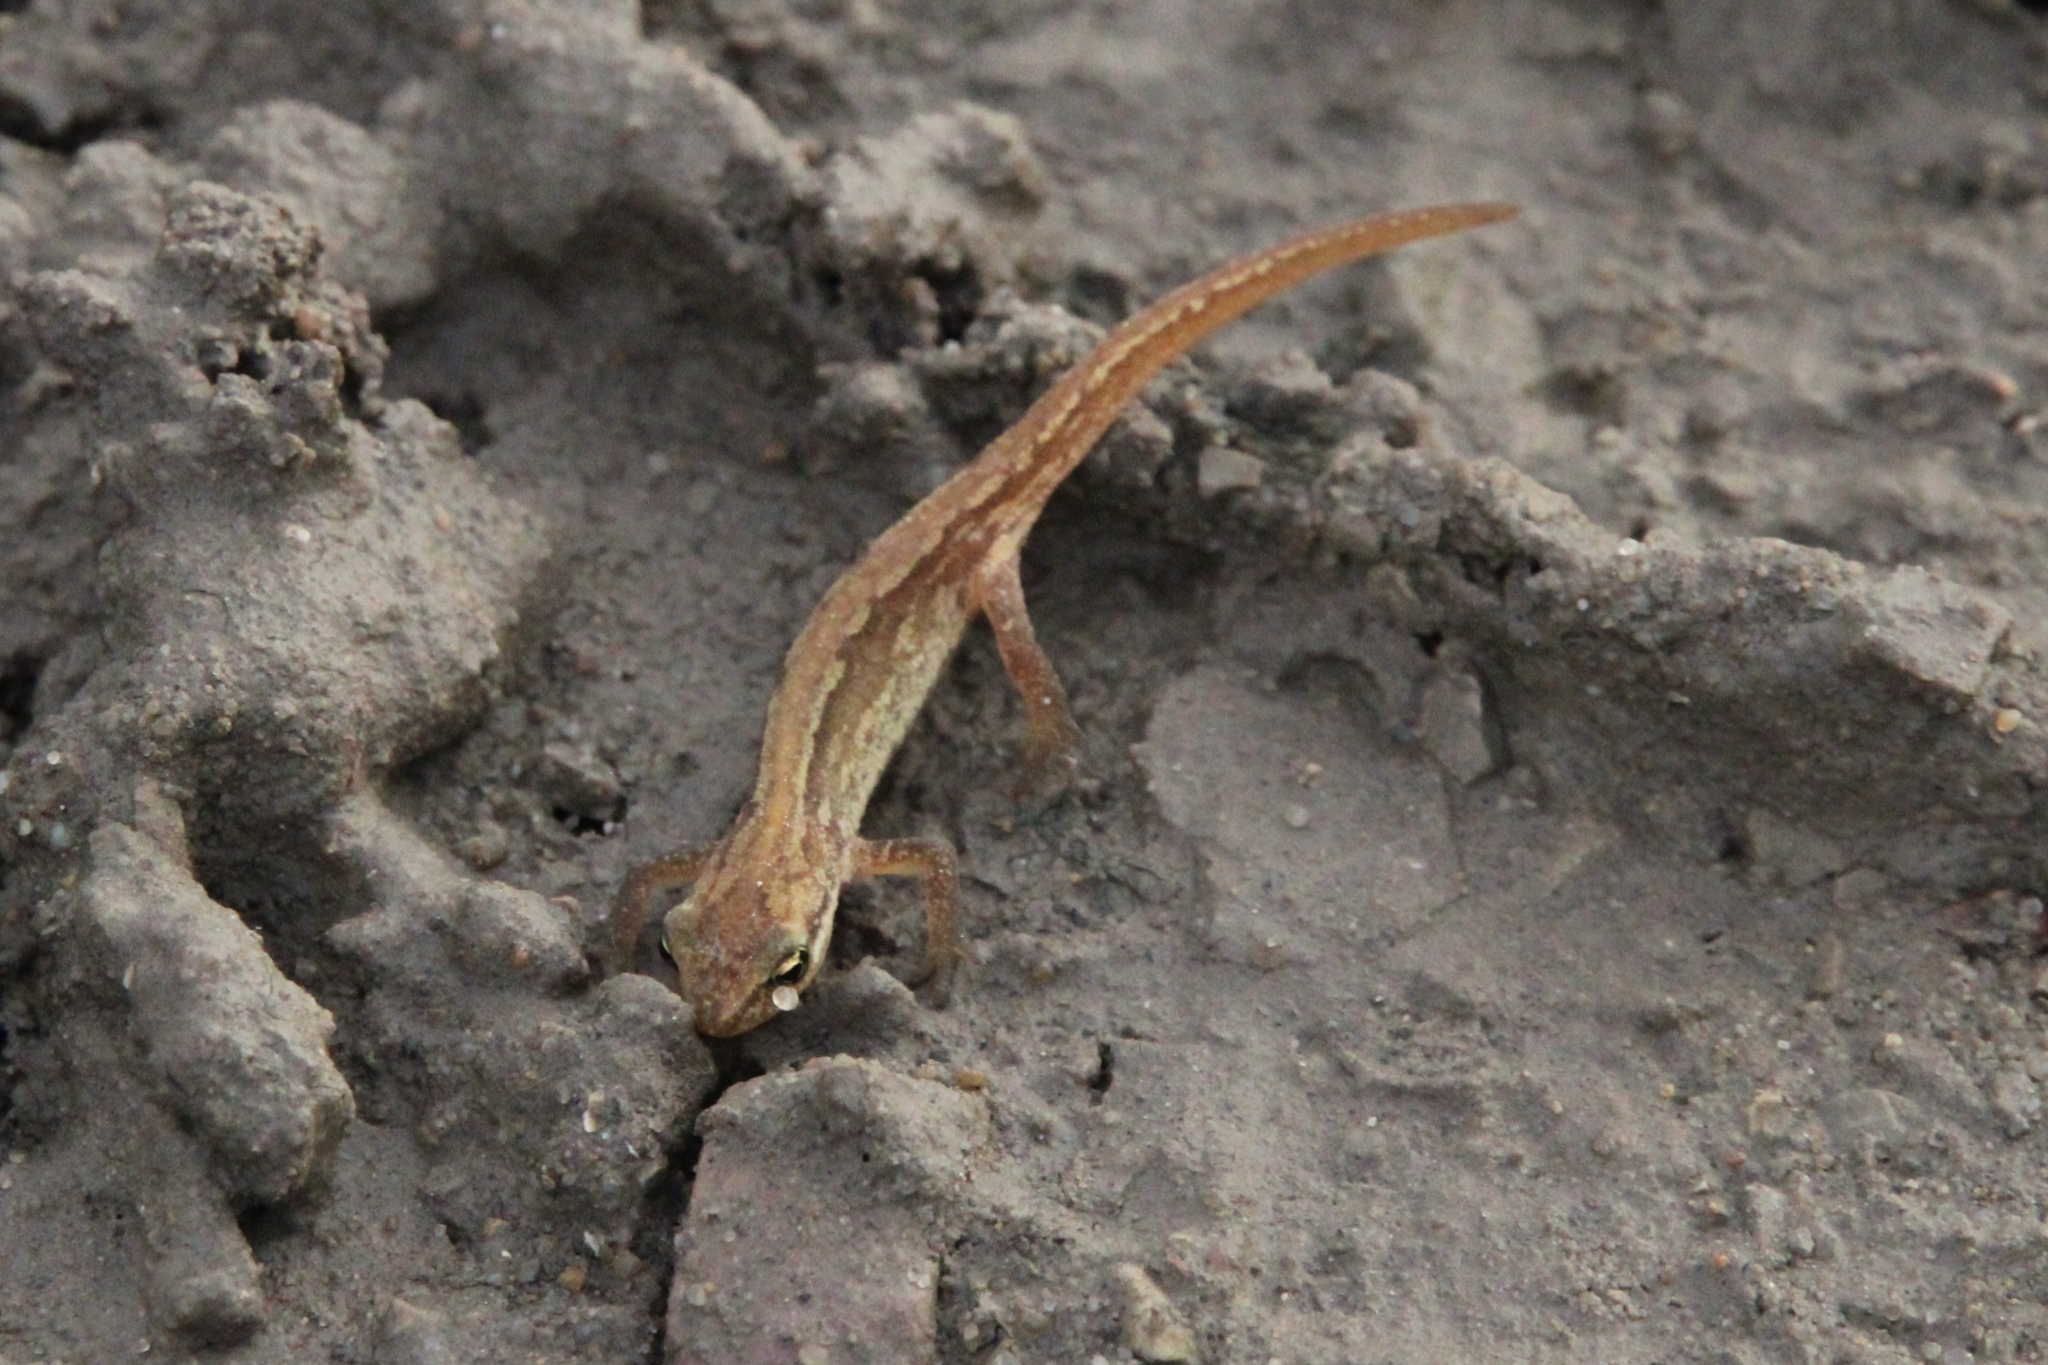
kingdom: Animalia
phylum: Chordata
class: Amphibia
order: Caudata
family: Salamandridae
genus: Lissotriton
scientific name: Lissotriton vulgaris
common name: Smooth newt
